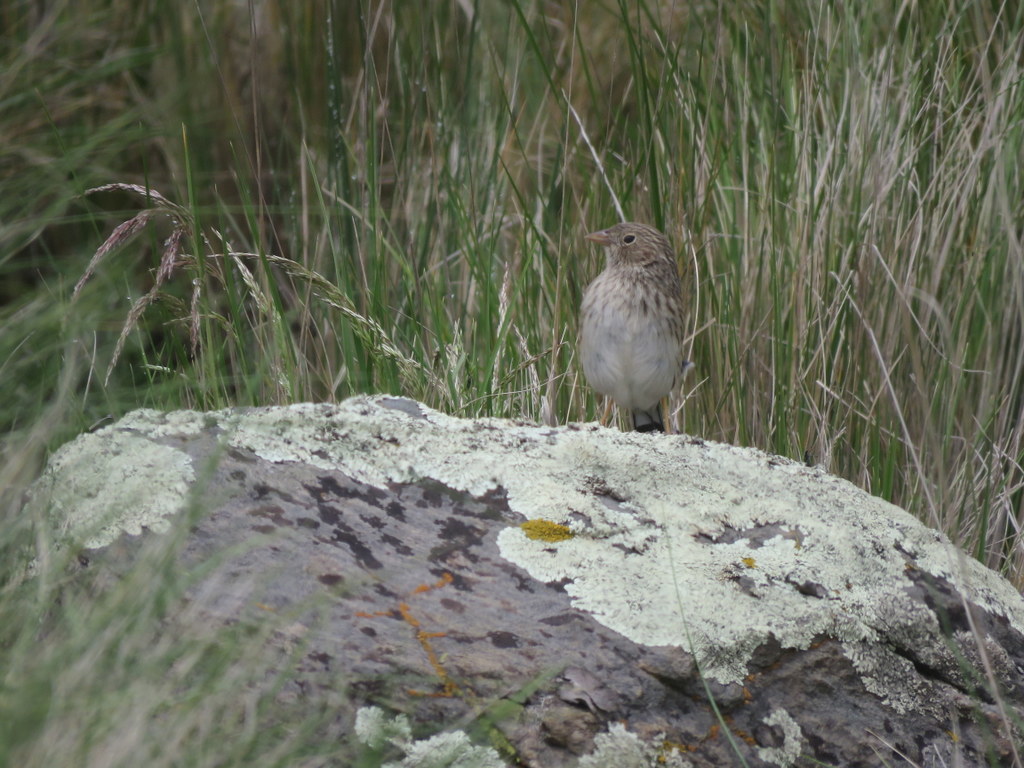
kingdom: Animalia
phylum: Chordata
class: Aves
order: Passeriformes
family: Thraupidae
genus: Porphyrospiza
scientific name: Porphyrospiza alaudina
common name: Band-tailed sierra finch
